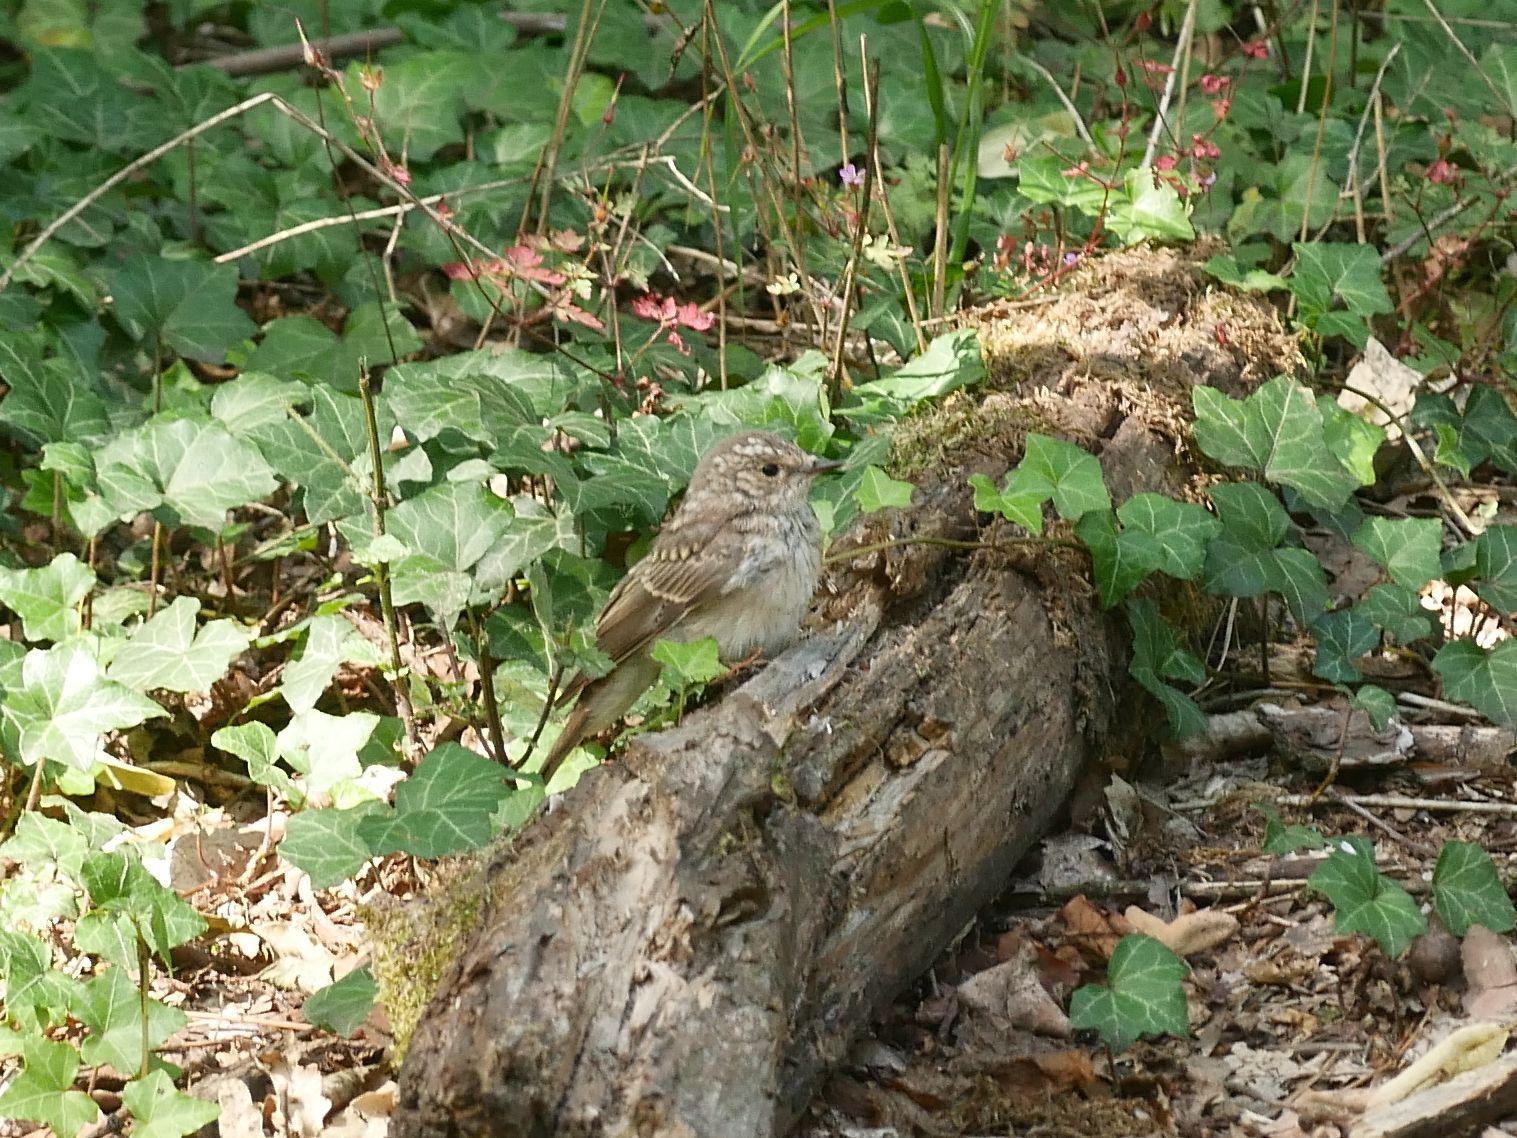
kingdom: Animalia
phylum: Chordata
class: Aves
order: Passeriformes
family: Muscicapidae
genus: Muscicapa
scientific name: Muscicapa striata
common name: Spotted flycatcher
